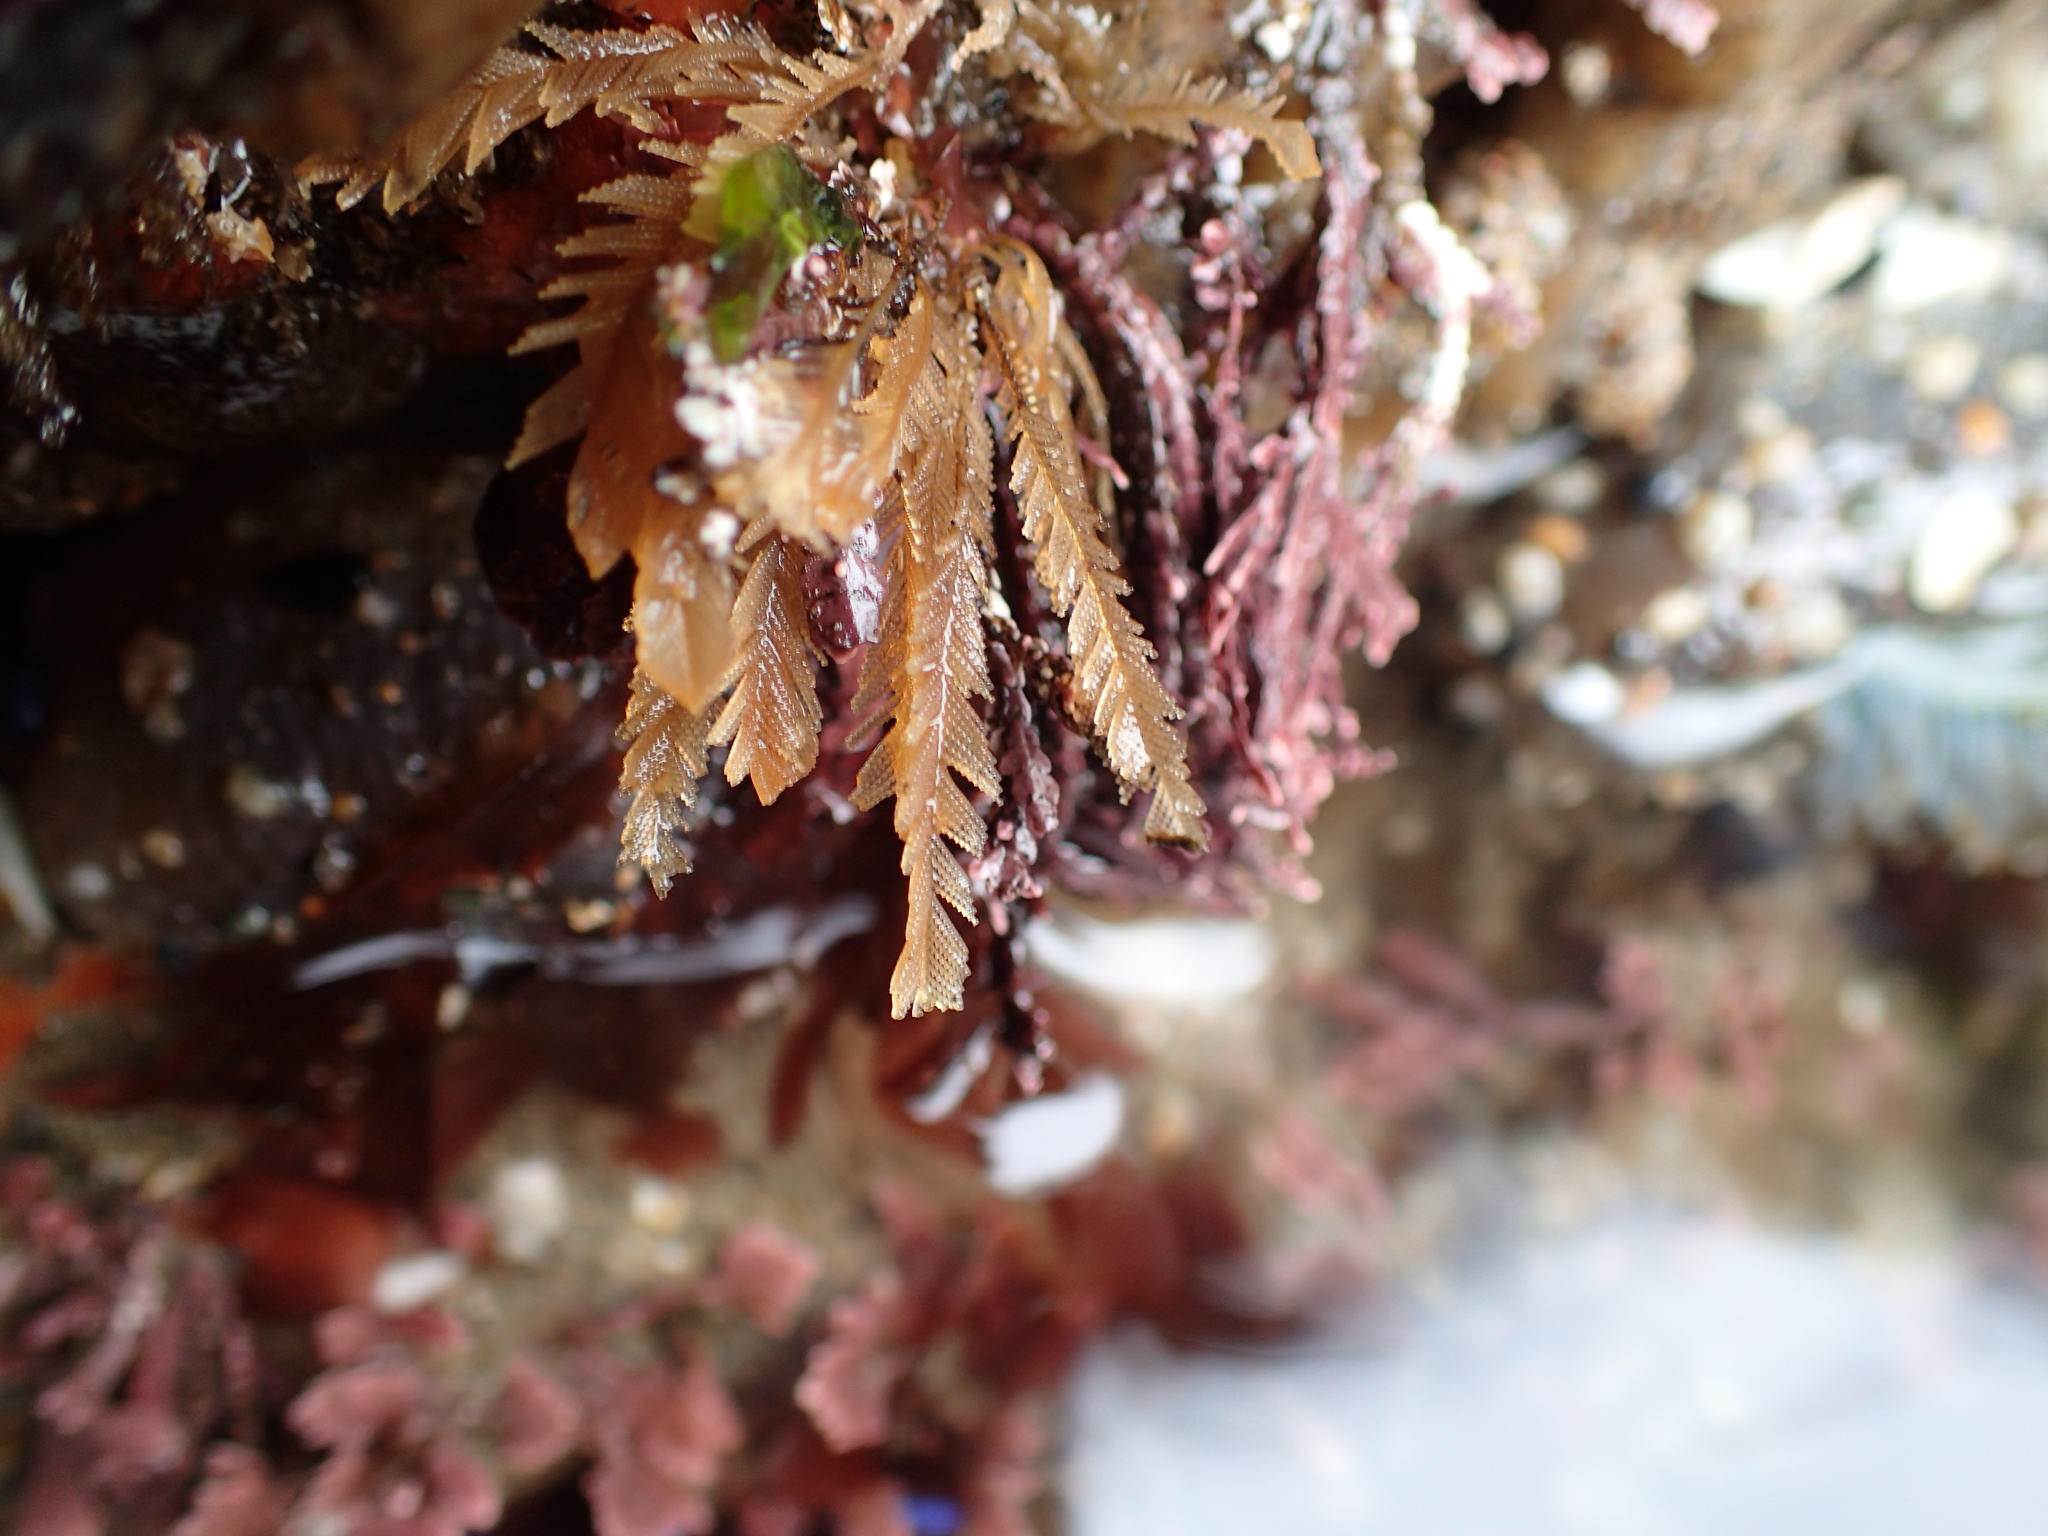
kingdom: Animalia
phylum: Cnidaria
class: Hydrozoa
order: Leptothecata
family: Aglaopheniidae
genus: Aglaophenia
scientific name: Aglaophenia struthionides
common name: Ostrichplume hydroid
